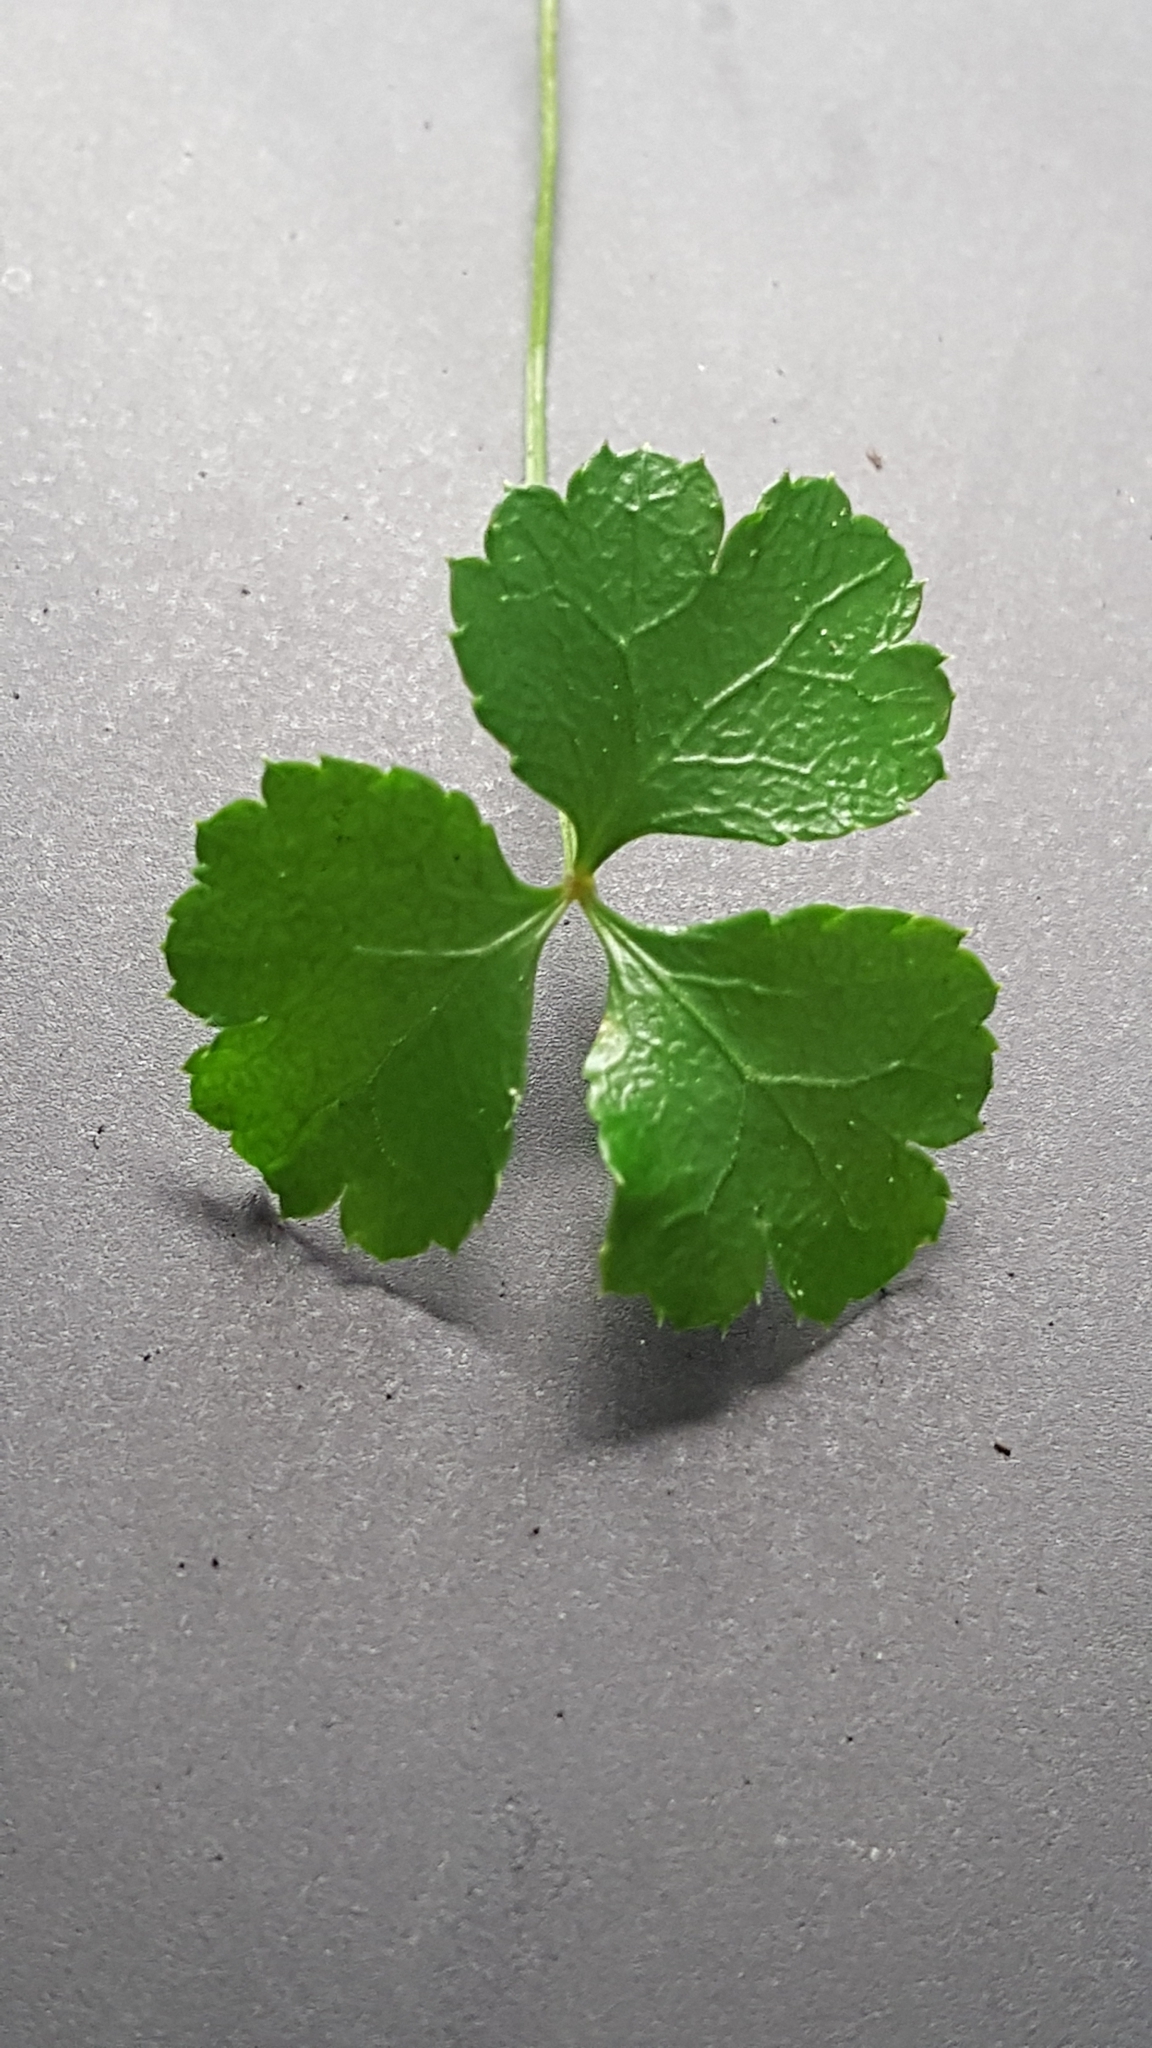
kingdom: Plantae
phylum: Tracheophyta
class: Magnoliopsida
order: Ranunculales
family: Ranunculaceae
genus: Coptis
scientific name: Coptis trifolia
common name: Canker-root
